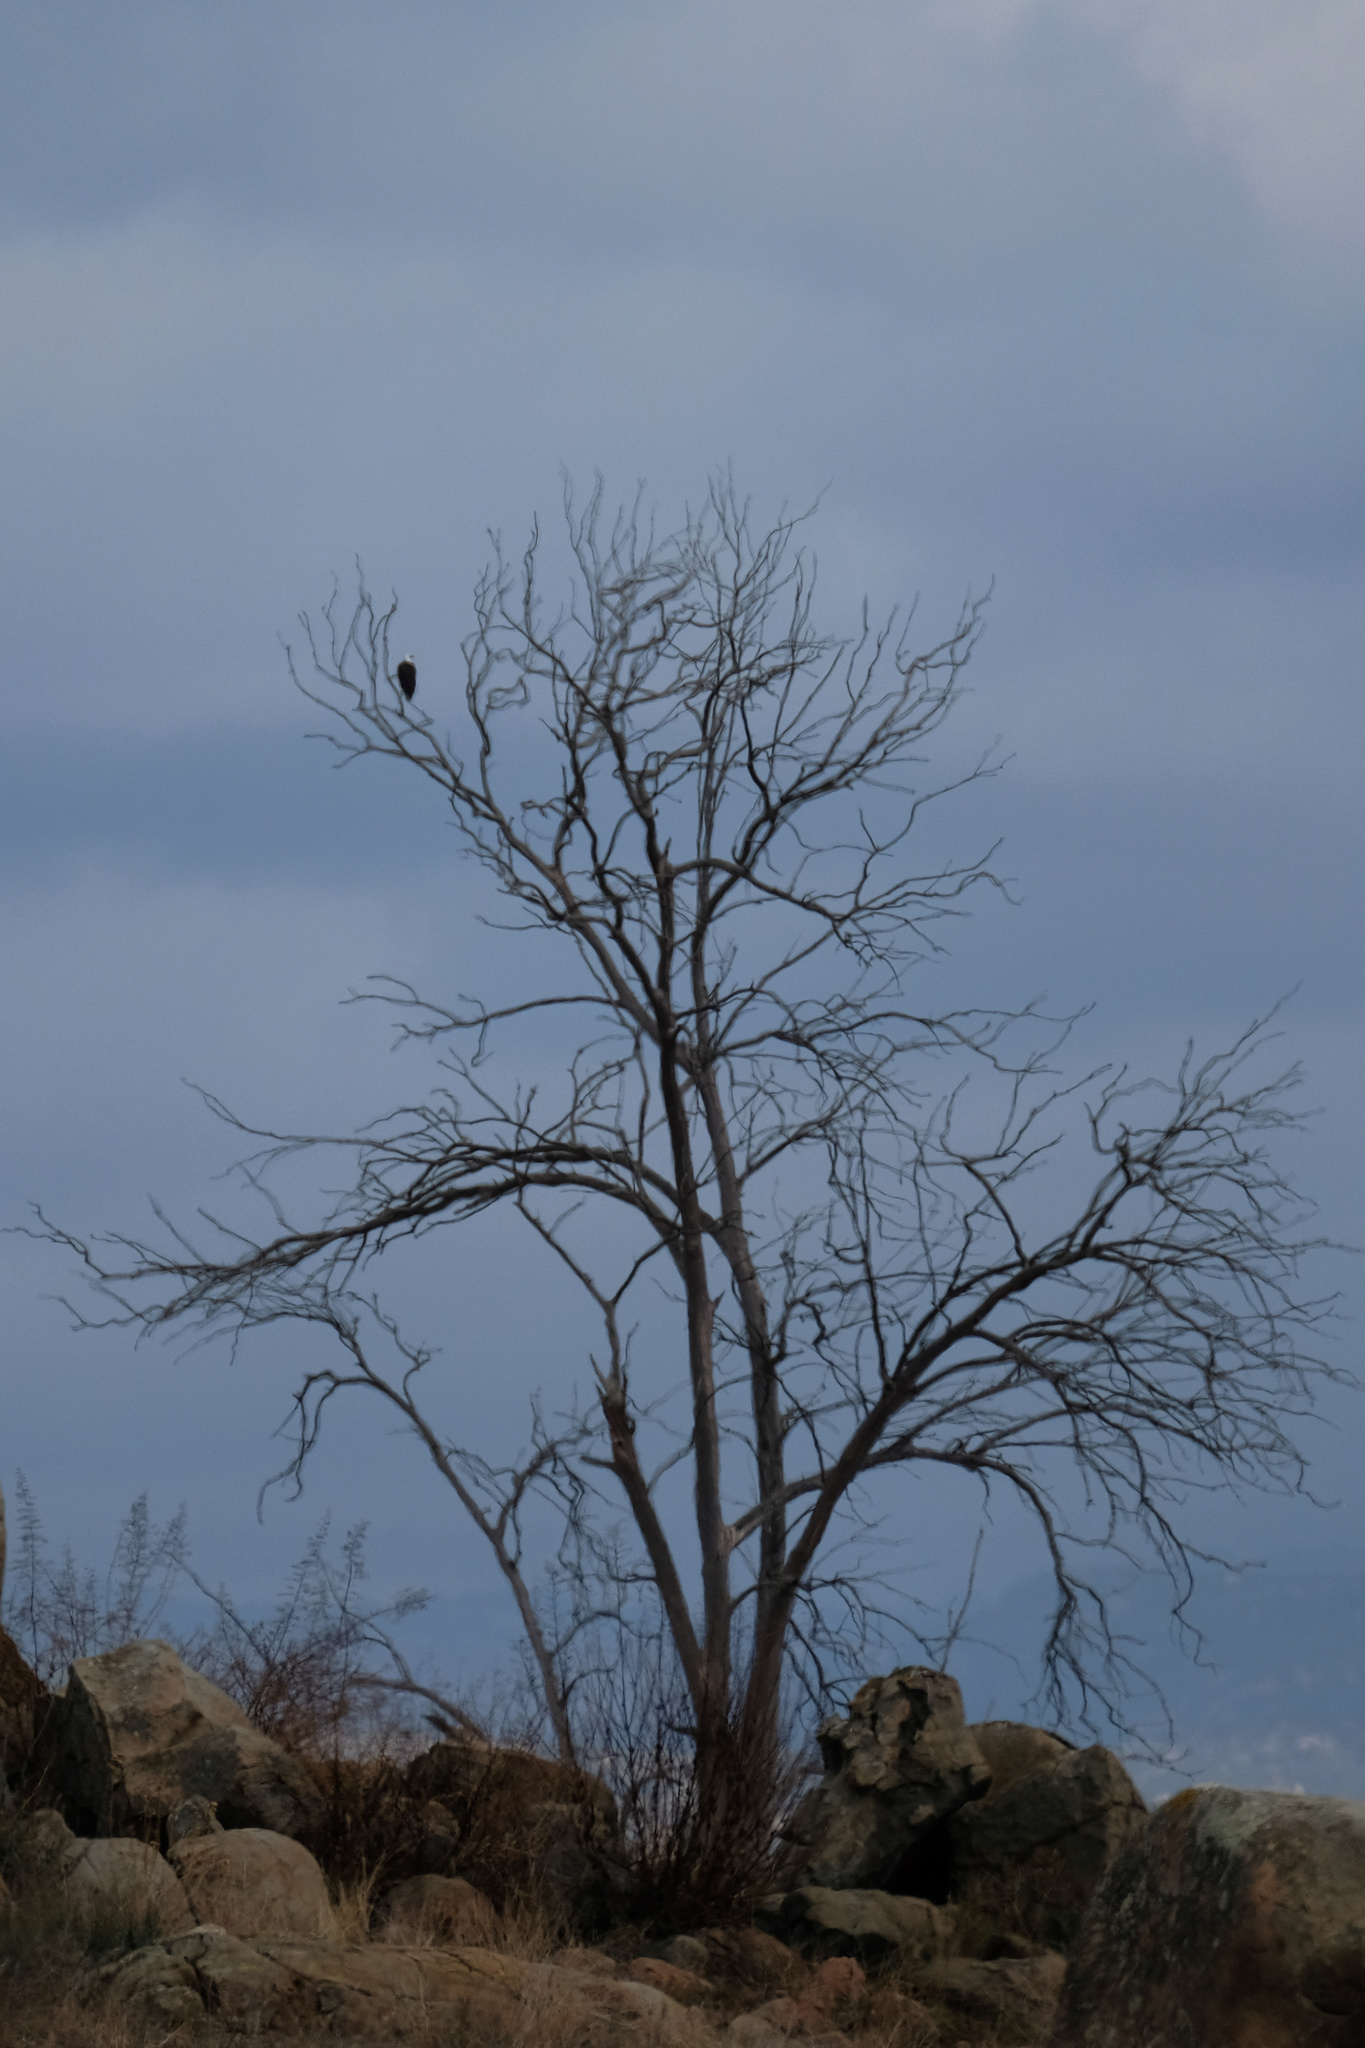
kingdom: Animalia
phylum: Chordata
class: Aves
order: Accipitriformes
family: Accipitridae
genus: Haliaeetus
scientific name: Haliaeetus leucocephalus
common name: Bald eagle
